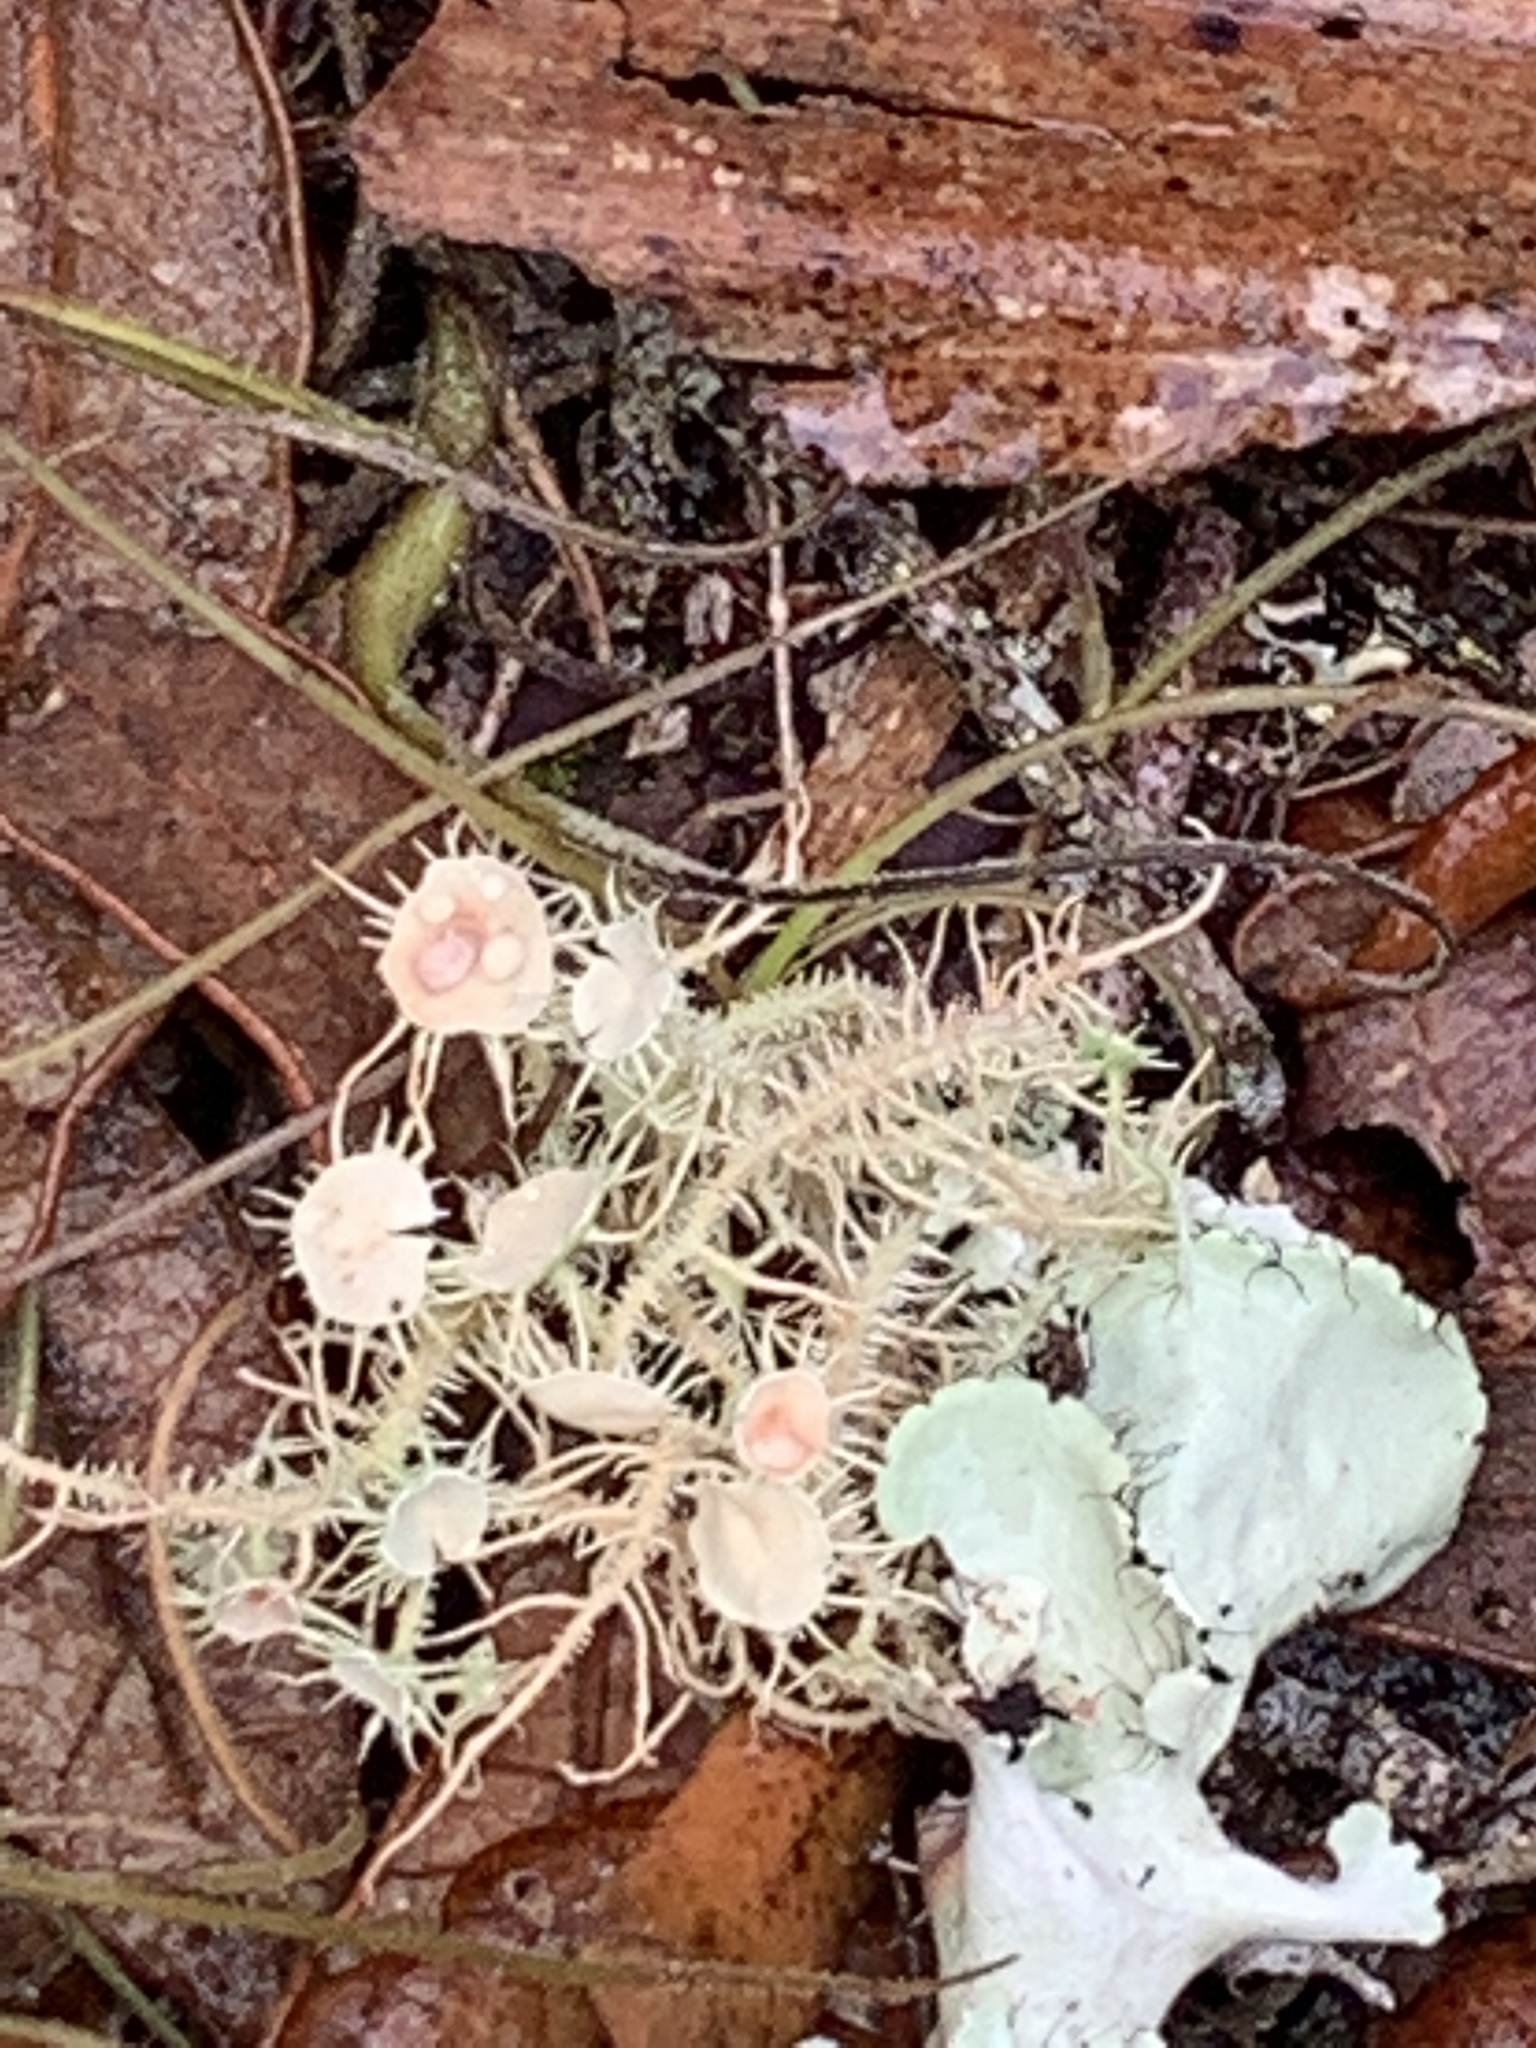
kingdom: Fungi
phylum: Ascomycota
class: Lecanoromycetes
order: Lecanorales
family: Parmeliaceae
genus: Usnea
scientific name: Usnea strigosa
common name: Bushy beard lichen
